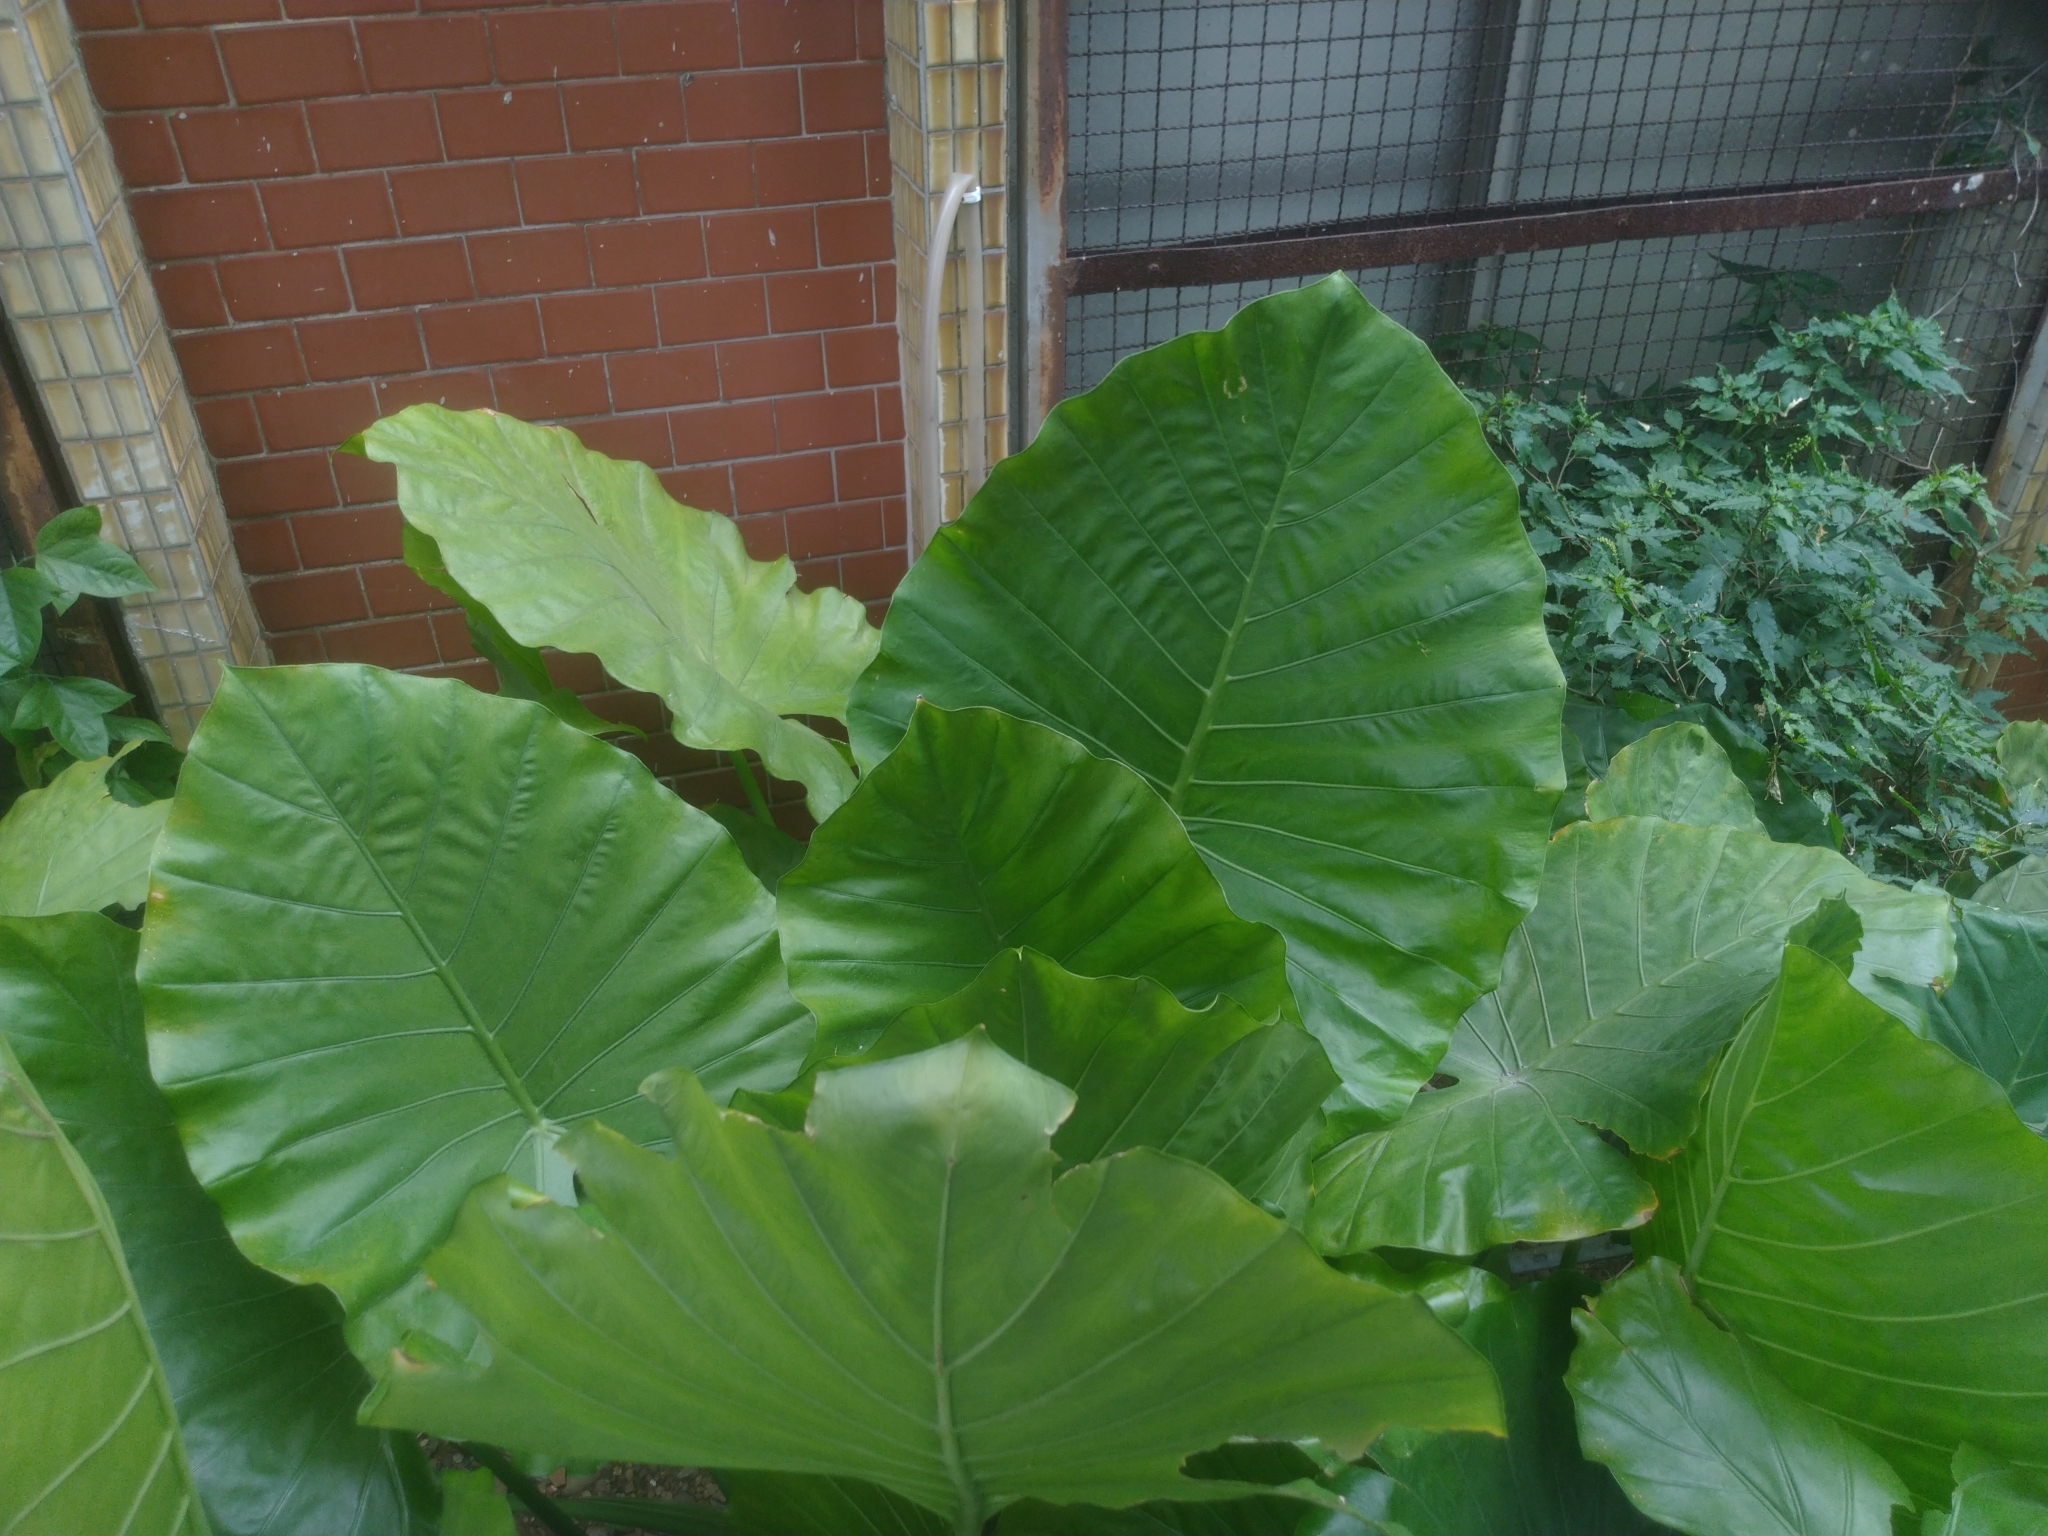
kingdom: Plantae
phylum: Tracheophyta
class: Liliopsida
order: Alismatales
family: Araceae
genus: Alocasia
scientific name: Alocasia odora
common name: Asian taro
